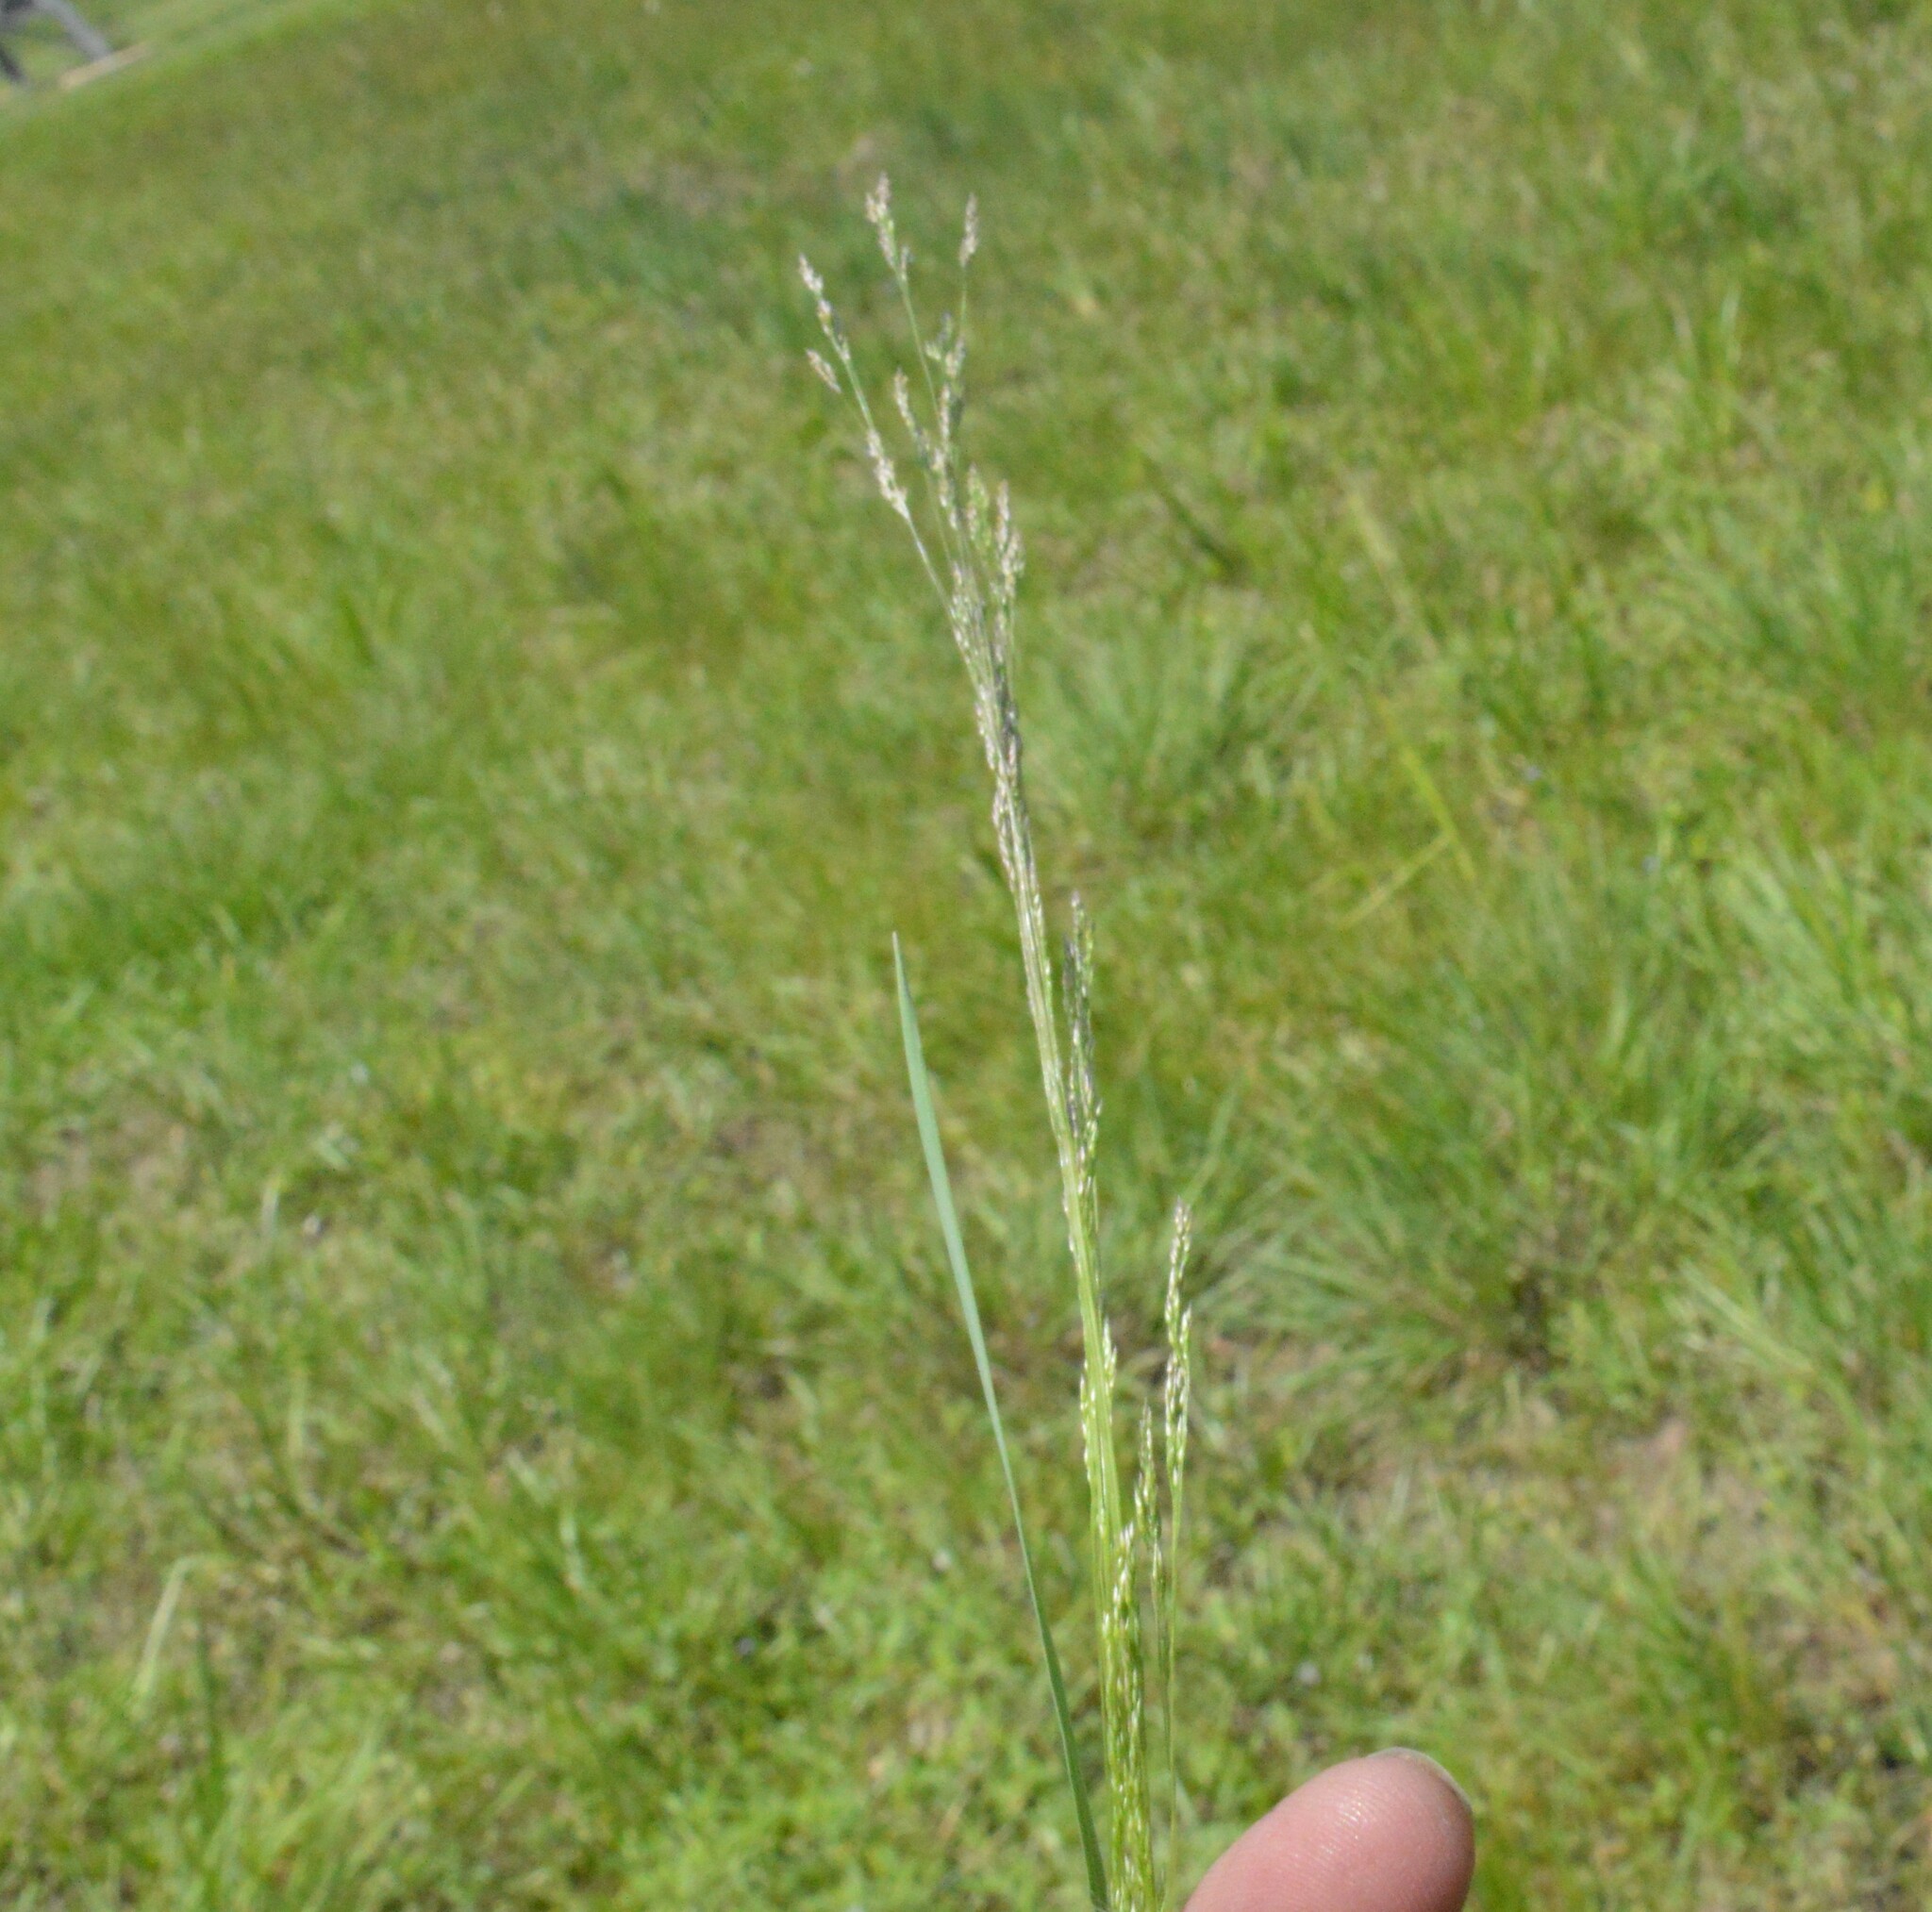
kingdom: Plantae
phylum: Tracheophyta
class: Liliopsida
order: Poales
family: Poaceae
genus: Agrostis
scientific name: Agrostis hyemalis
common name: Small bent
